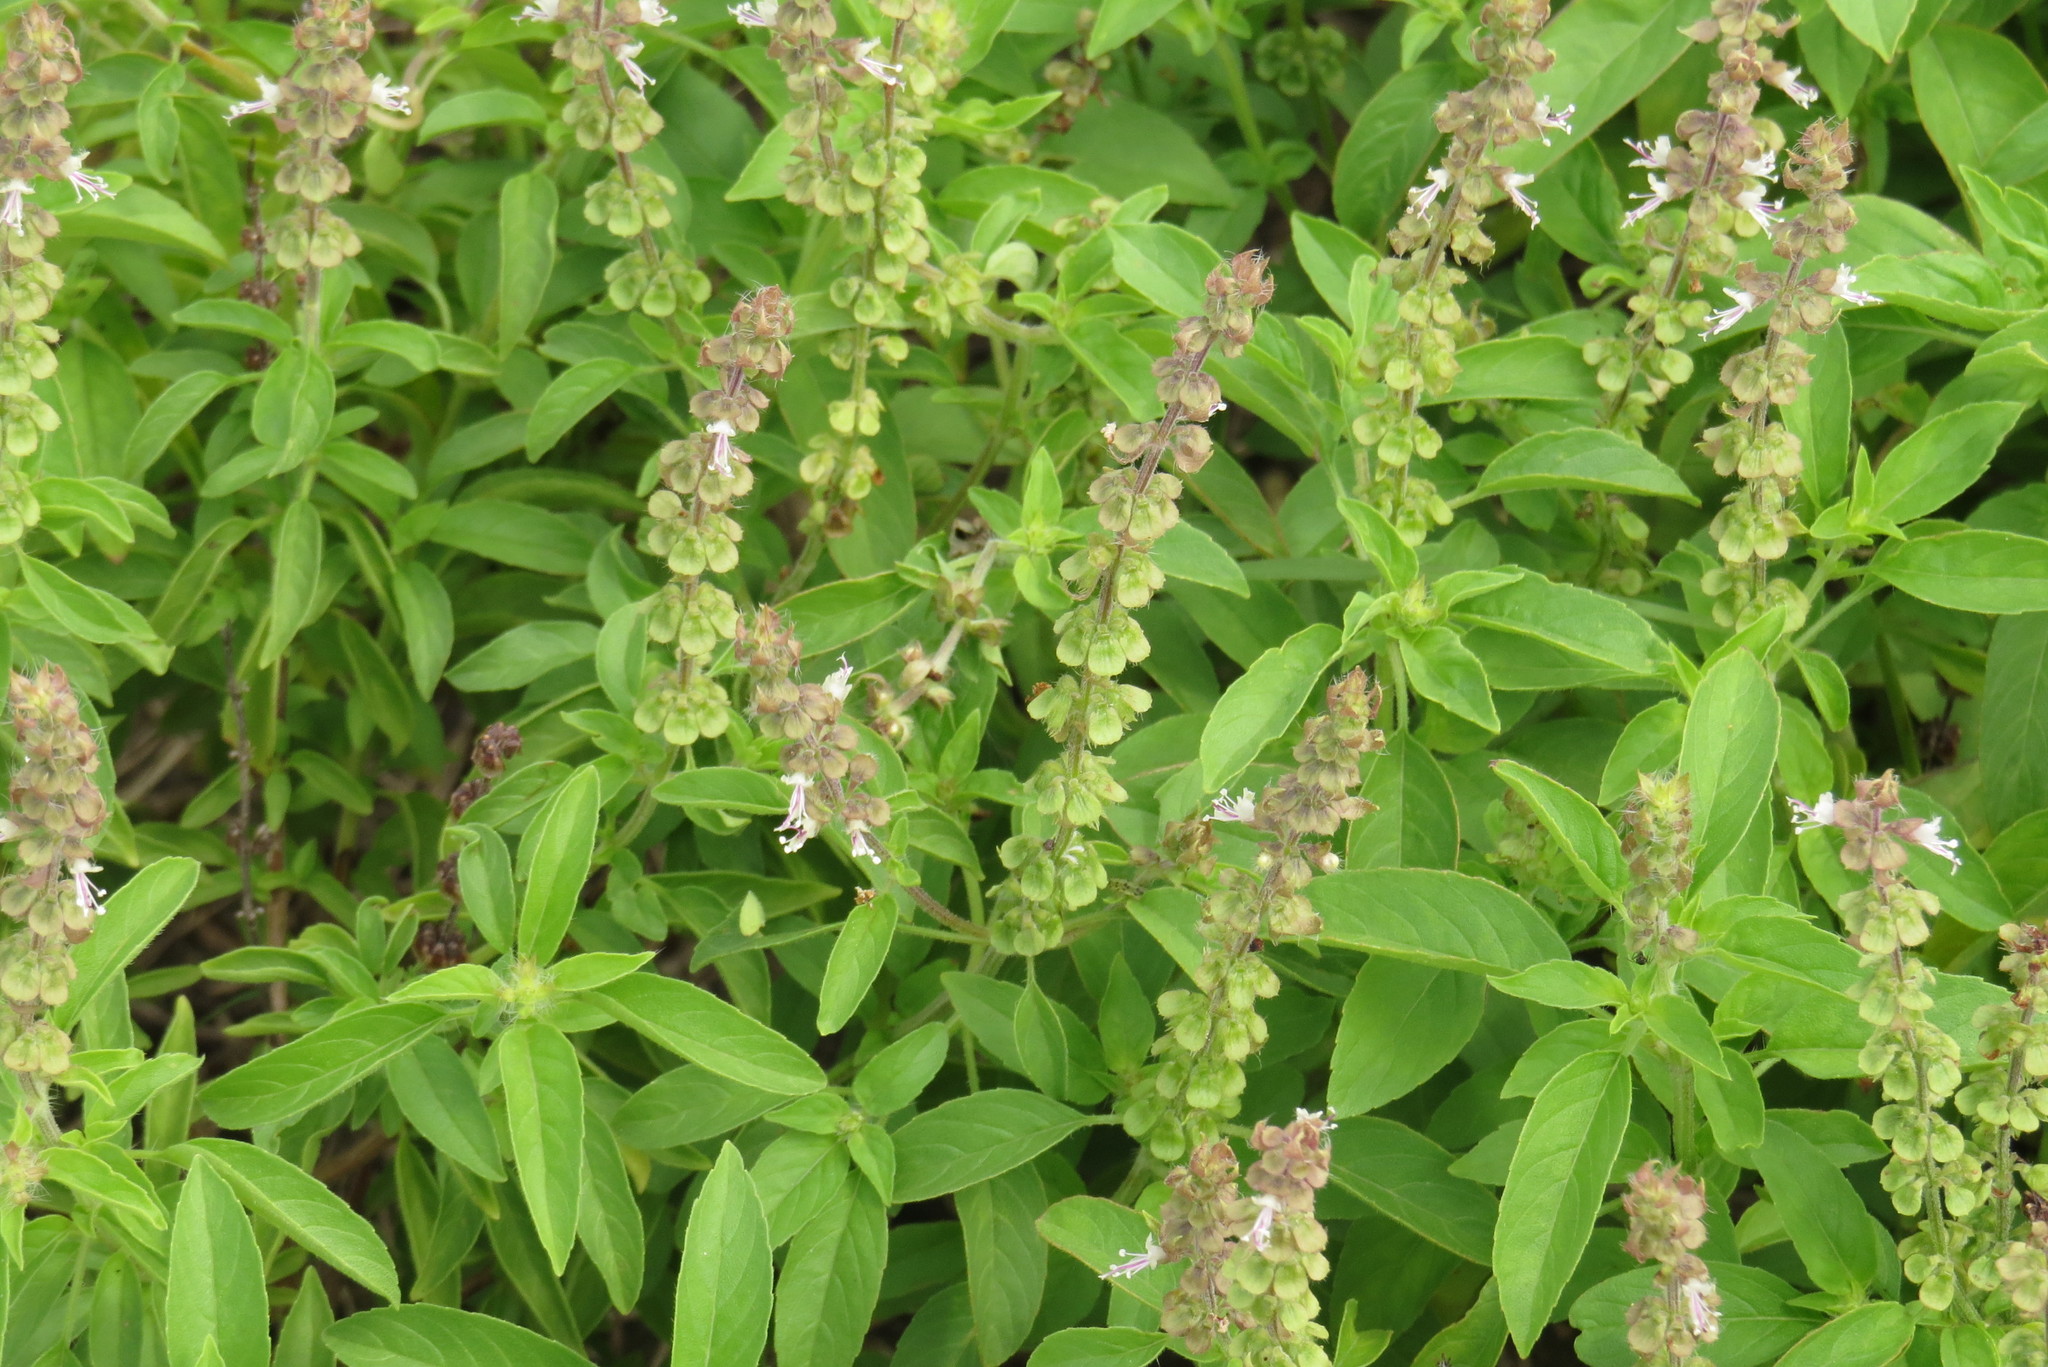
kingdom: Plantae
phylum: Tracheophyta
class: Magnoliopsida
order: Lamiales
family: Lamiaceae
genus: Ocimum
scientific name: Ocimum basilicum
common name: Sweet basil
